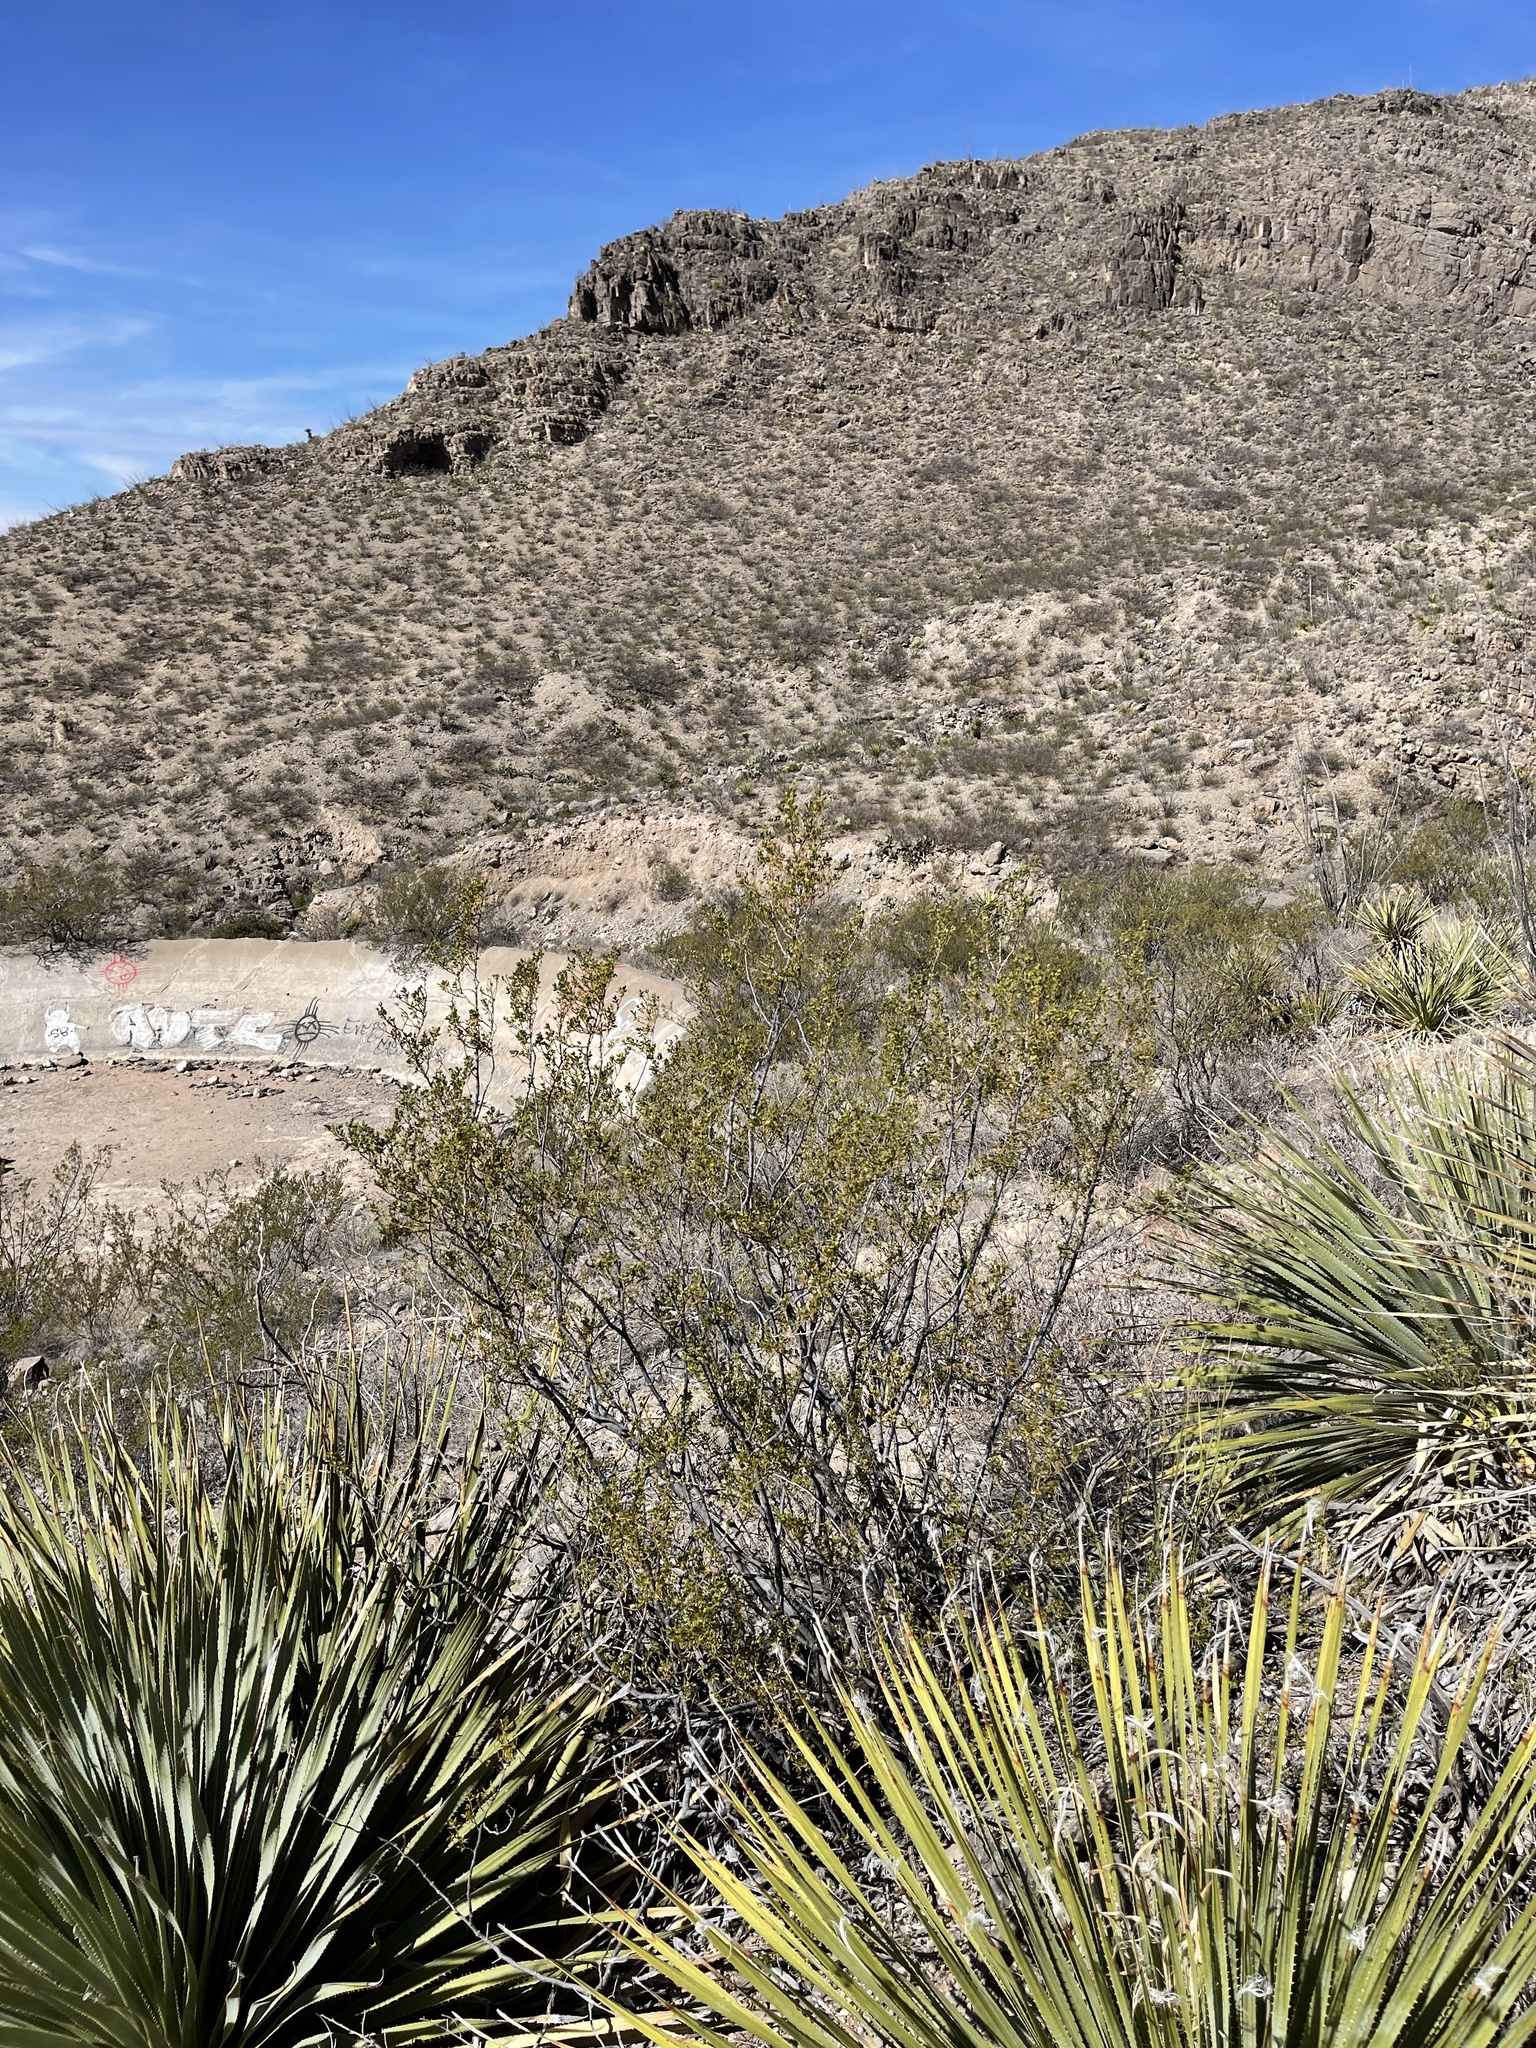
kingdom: Plantae
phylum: Tracheophyta
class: Magnoliopsida
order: Zygophyllales
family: Zygophyllaceae
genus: Larrea
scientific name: Larrea tridentata
